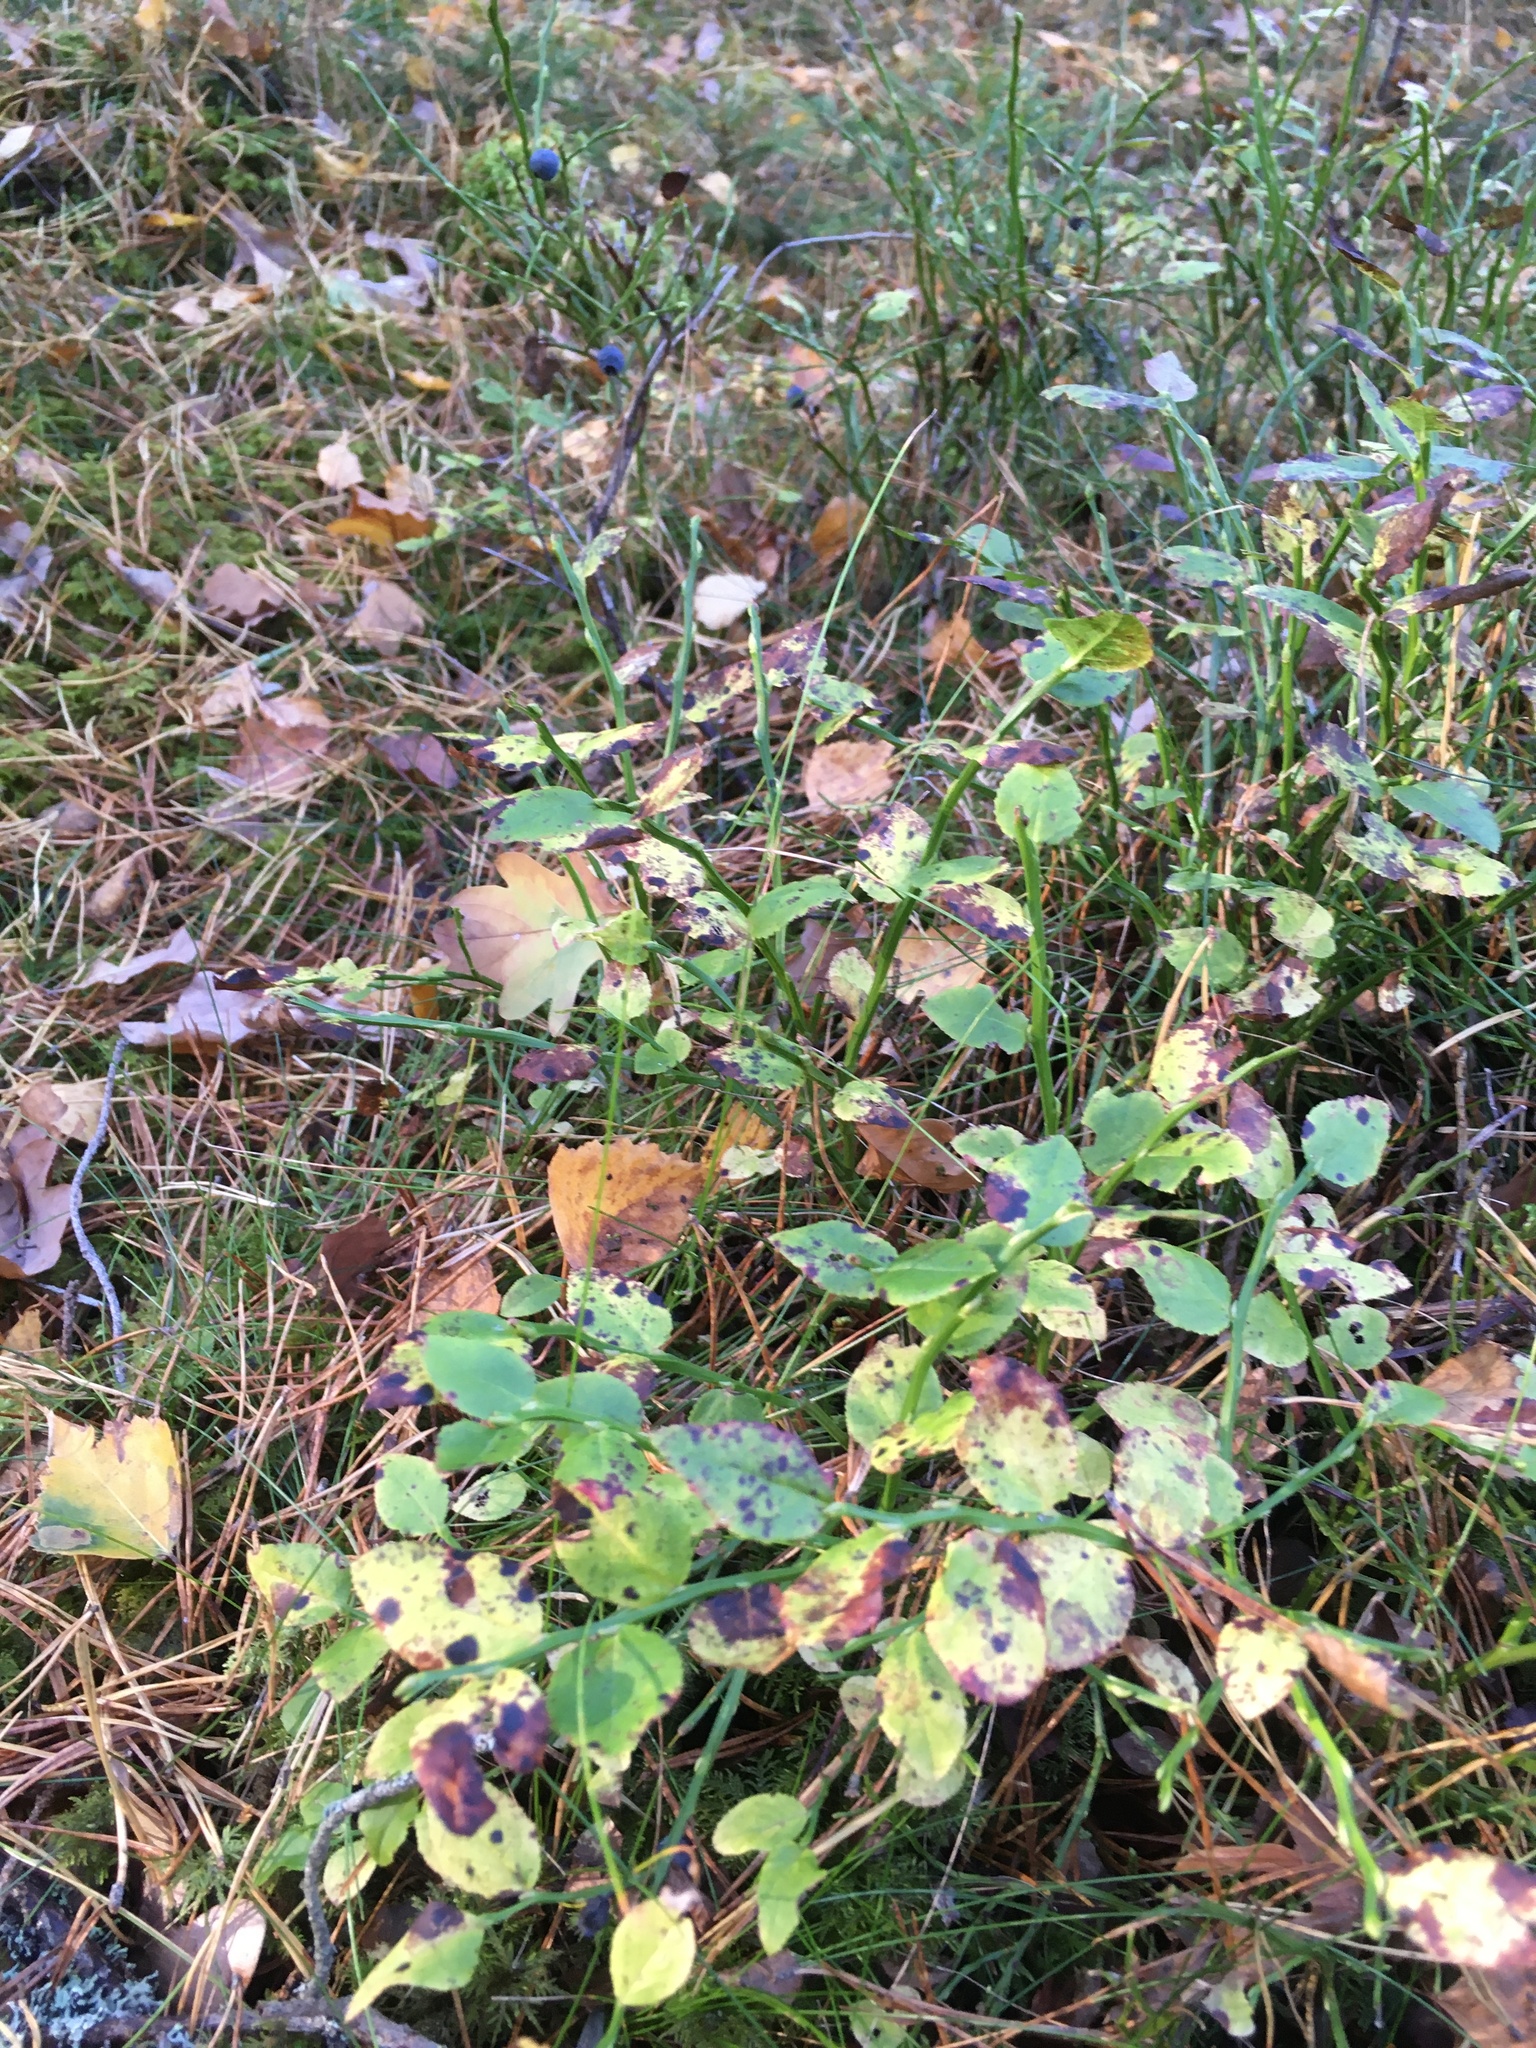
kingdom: Plantae
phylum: Tracheophyta
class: Magnoliopsida
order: Ericales
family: Ericaceae
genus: Vaccinium
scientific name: Vaccinium myrtillus
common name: Bilberry
